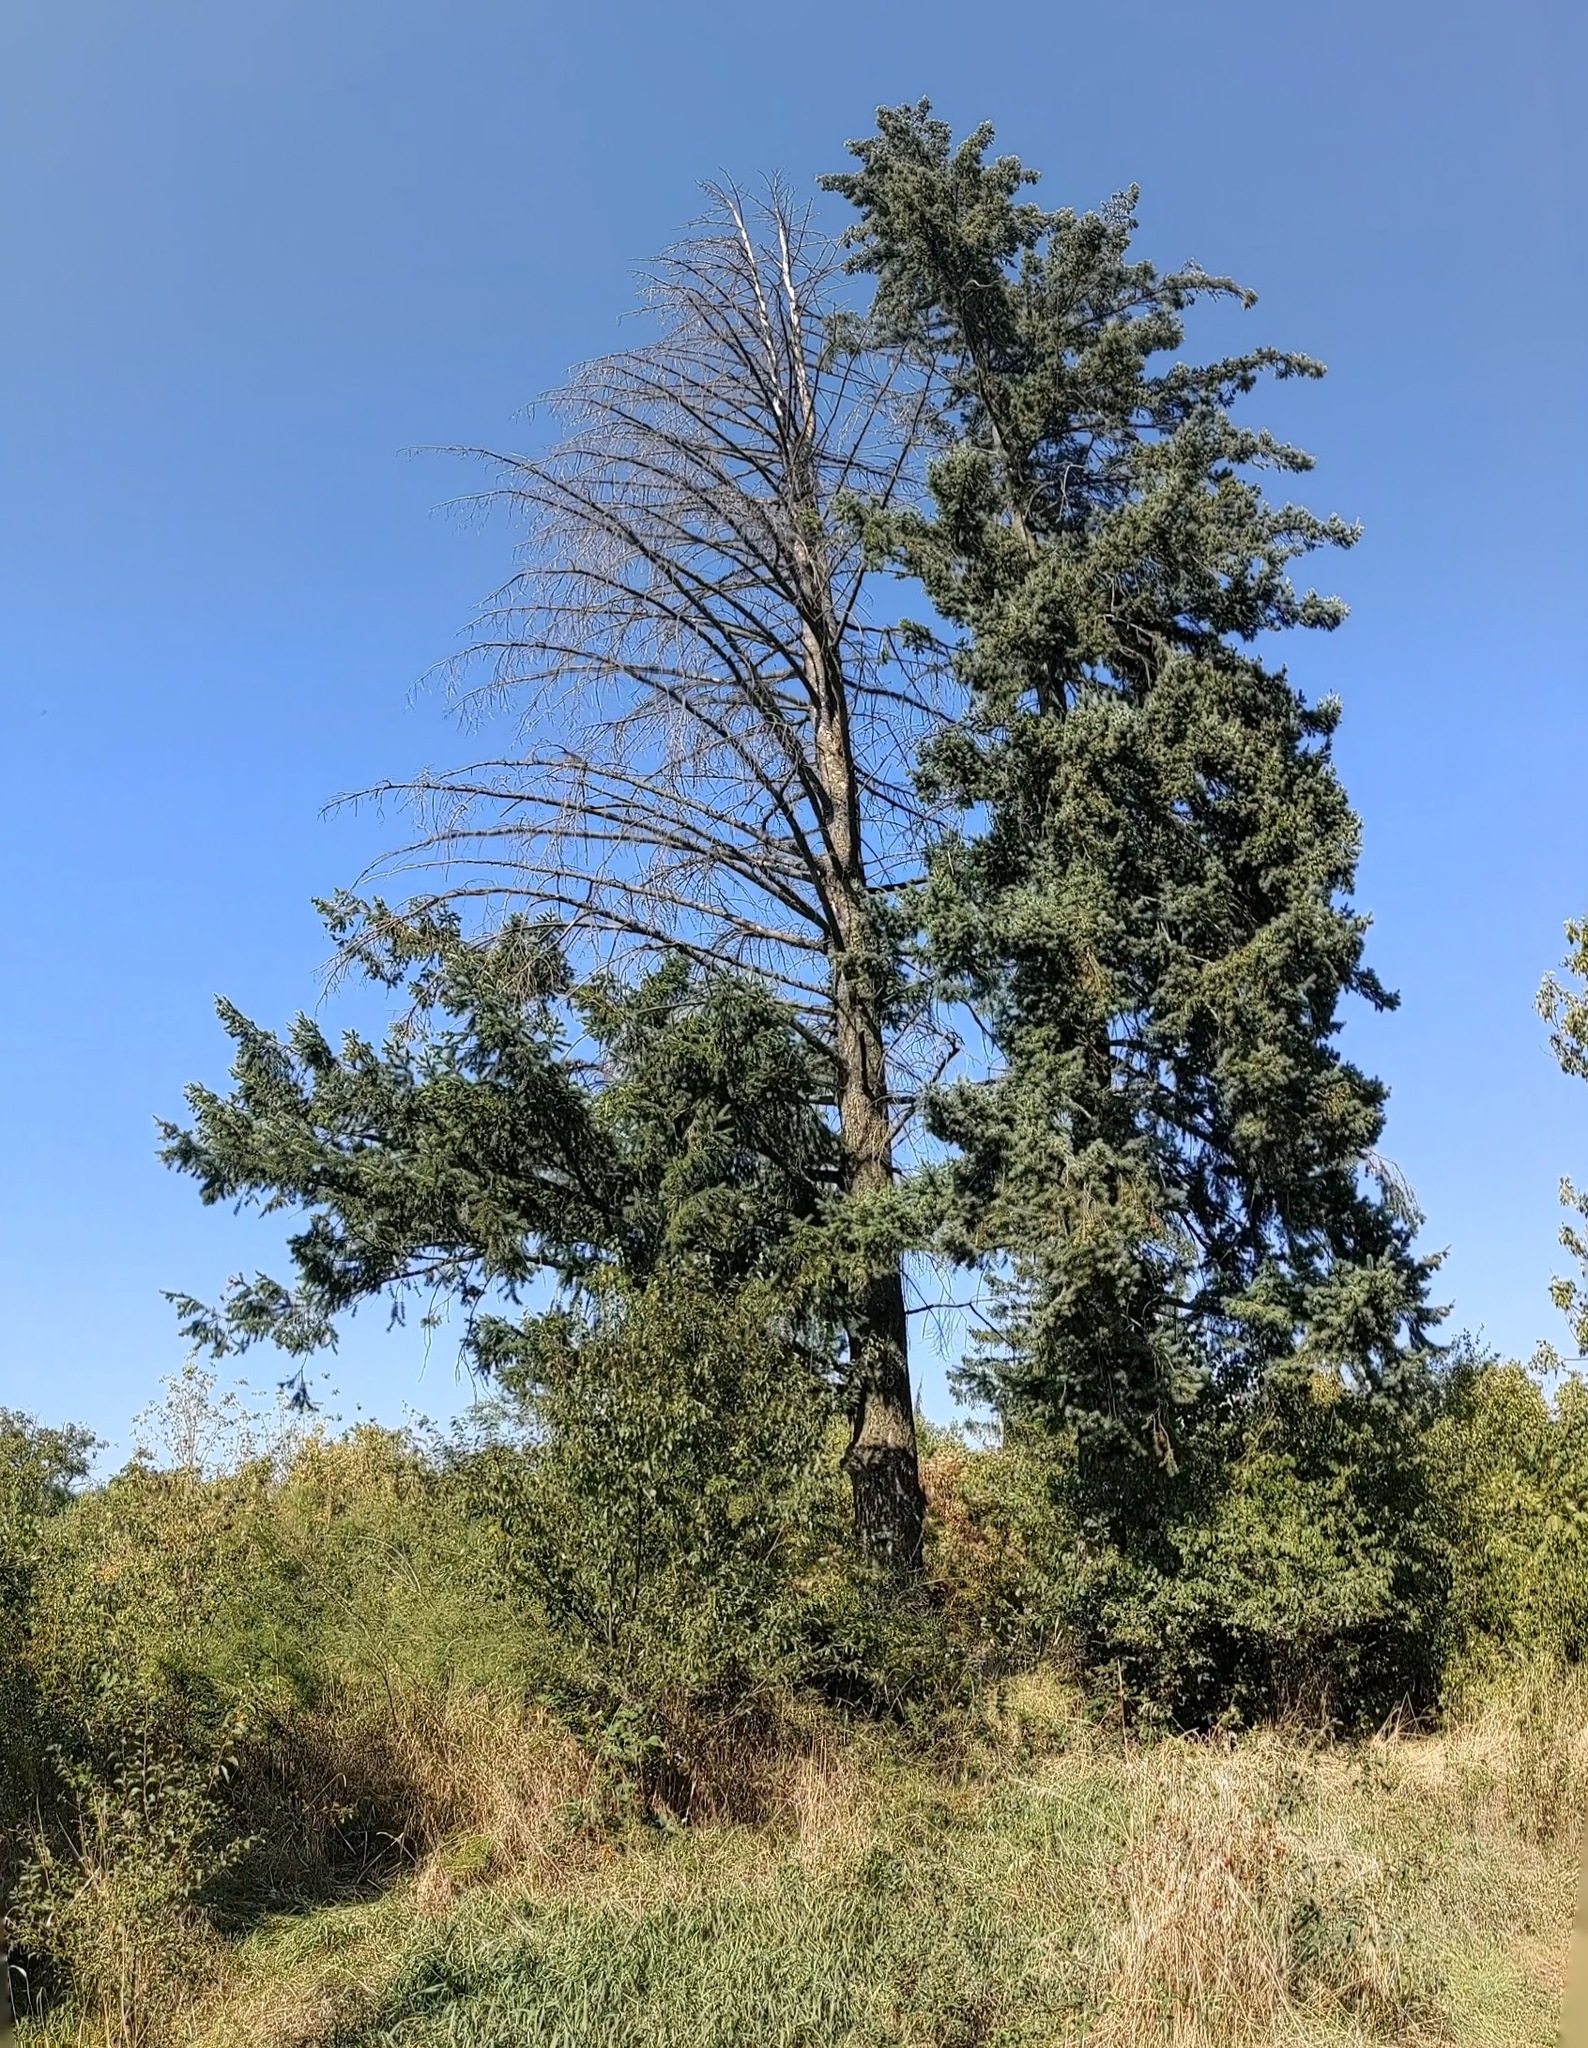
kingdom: Plantae
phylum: Tracheophyta
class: Pinopsida
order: Pinales
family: Pinaceae
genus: Pseudotsuga
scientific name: Pseudotsuga menziesii
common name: Douglas fir
